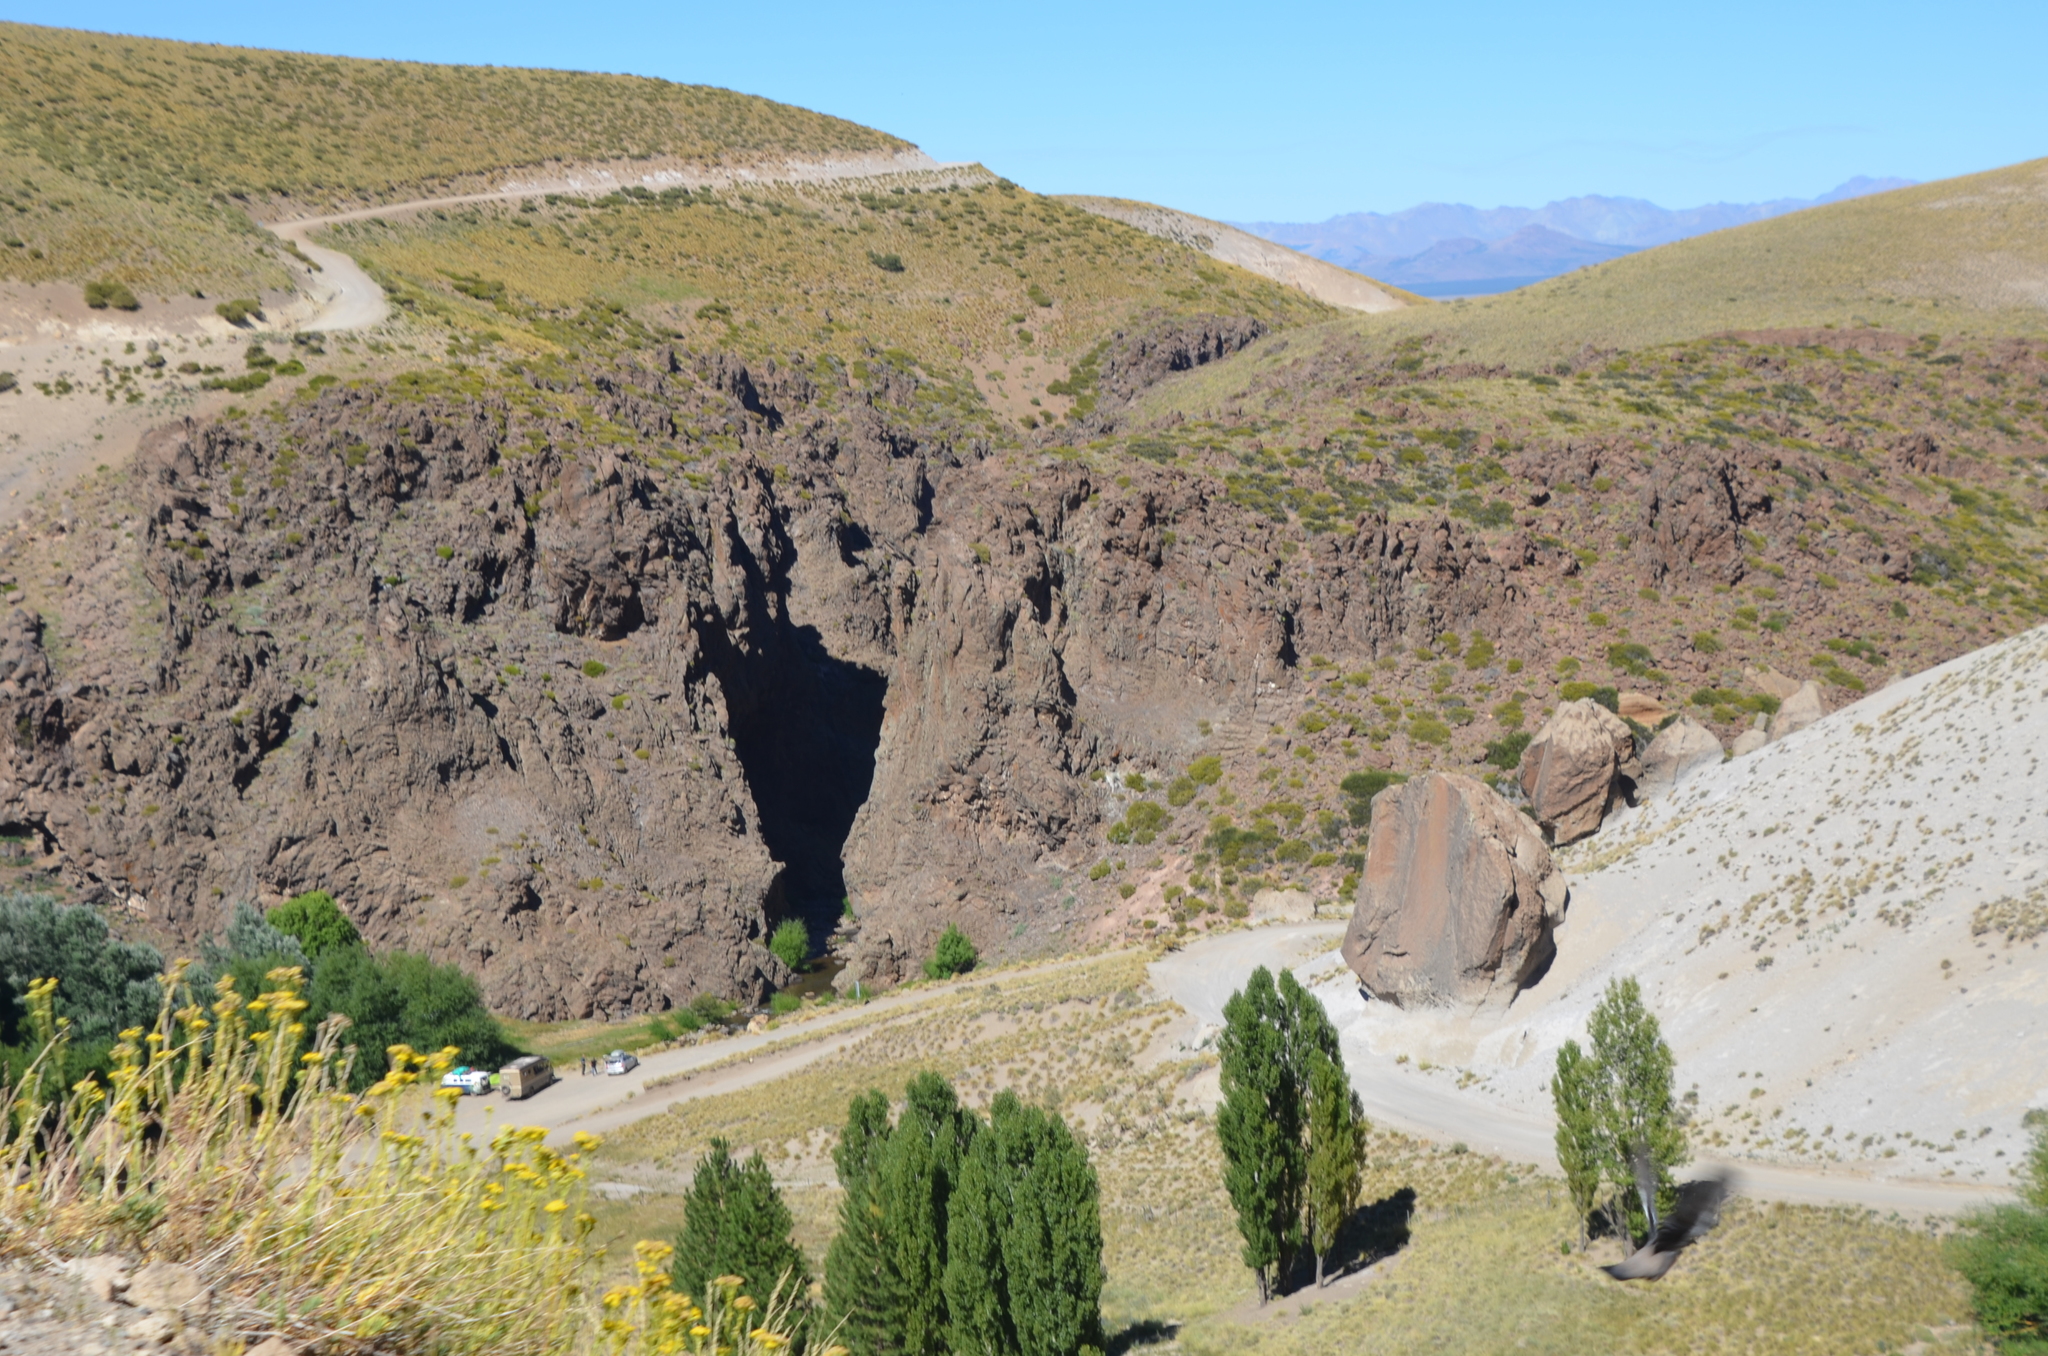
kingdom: Plantae
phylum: Tracheophyta
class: Magnoliopsida
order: Malpighiales
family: Salicaceae
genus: Populus
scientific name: Populus nigra
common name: Black poplar
